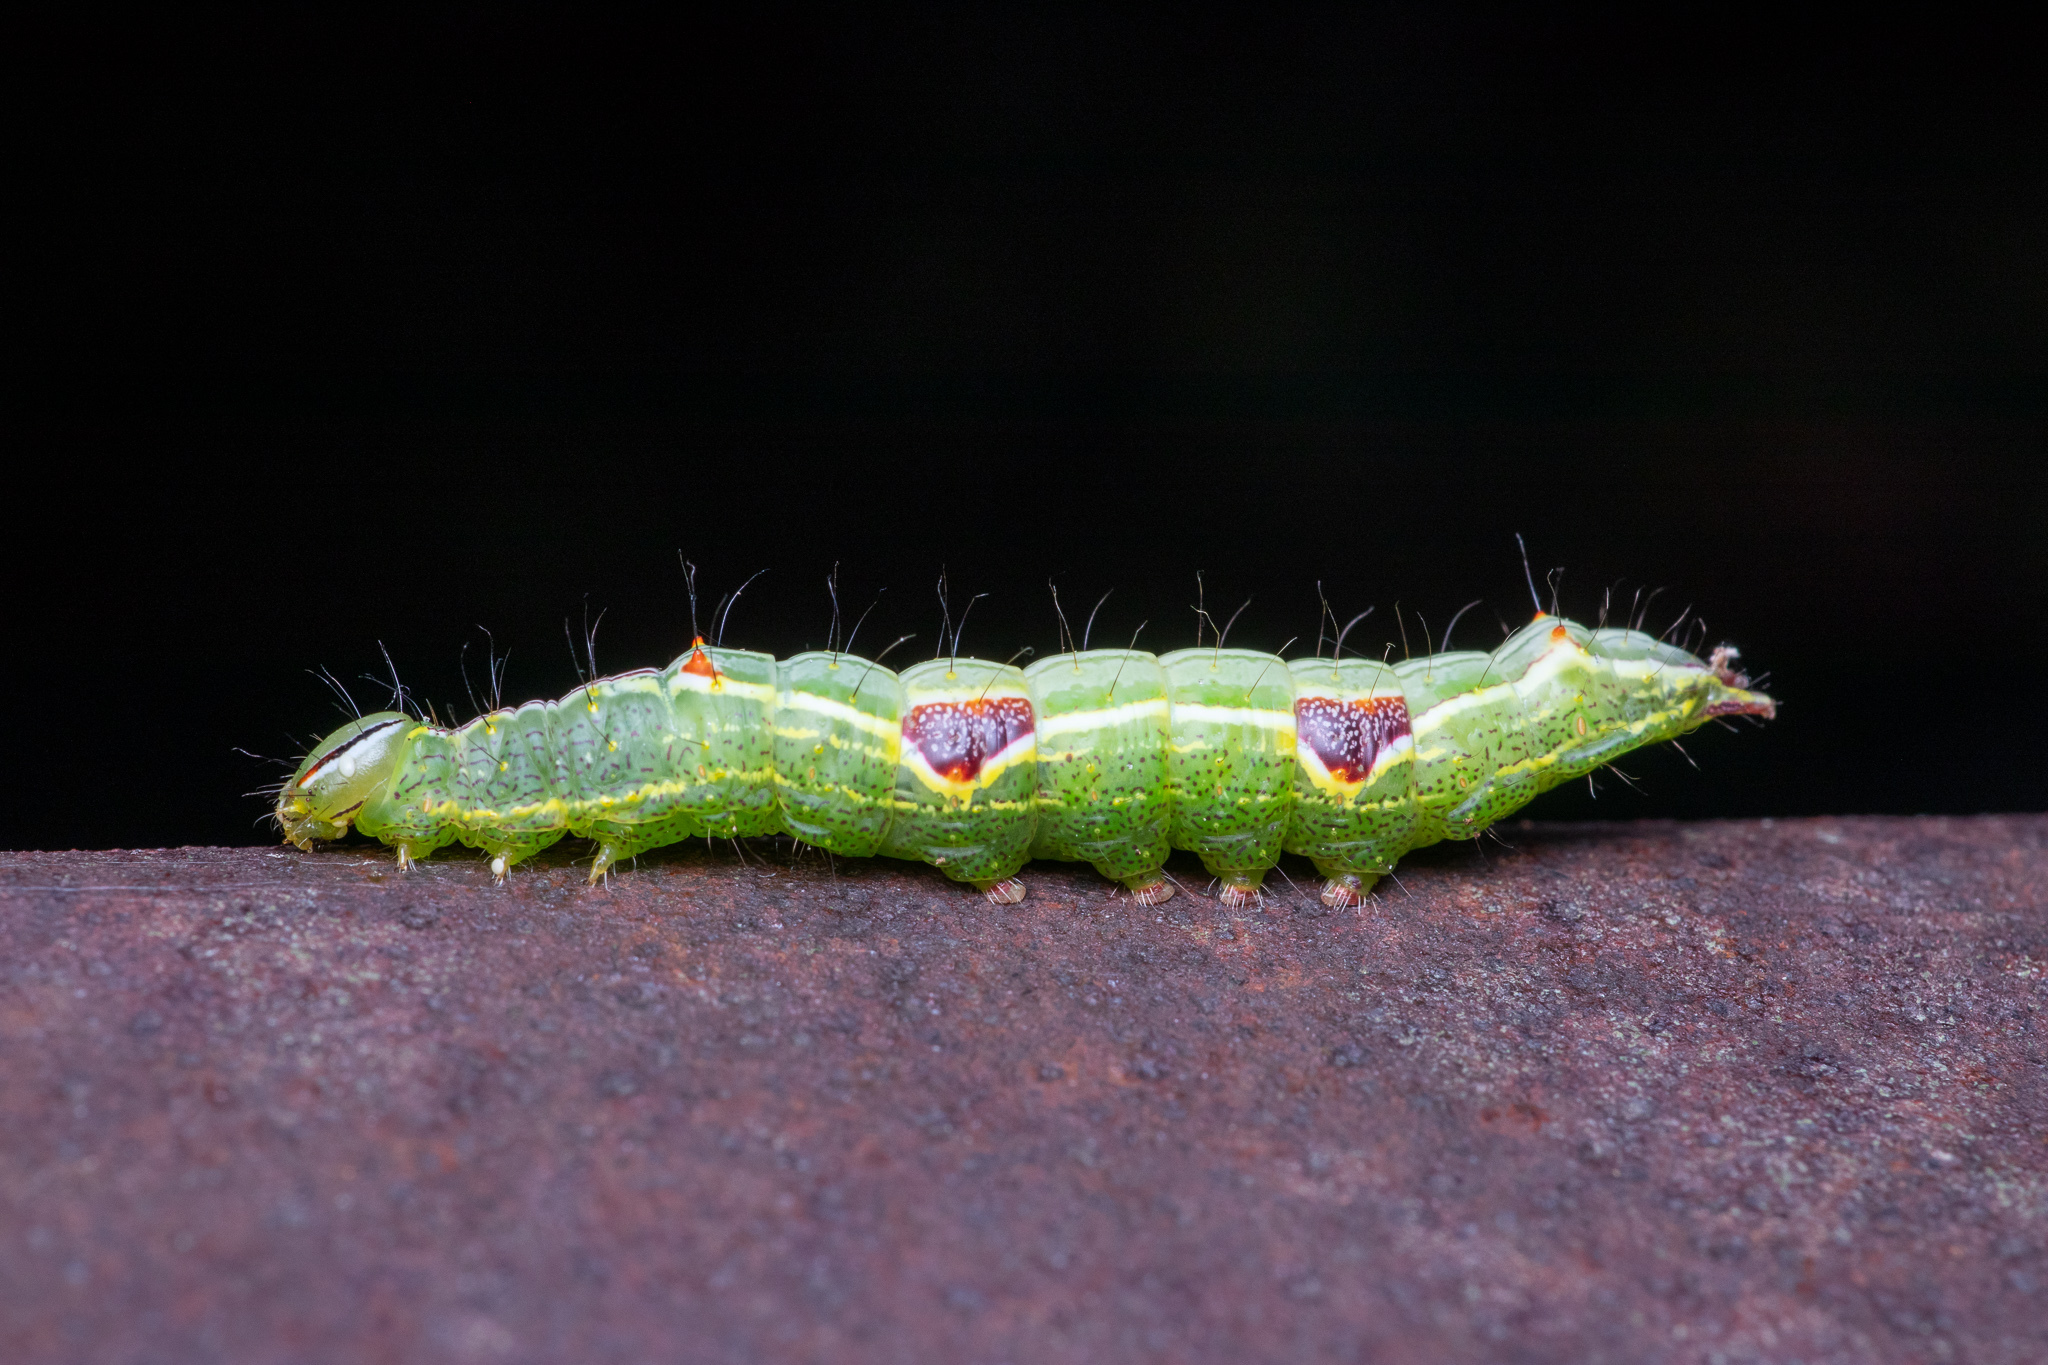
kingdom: Animalia
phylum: Arthropoda
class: Insecta
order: Lepidoptera
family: Notodontidae
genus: Lochmaeus
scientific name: Lochmaeus bilineata
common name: Double-lined prominent
